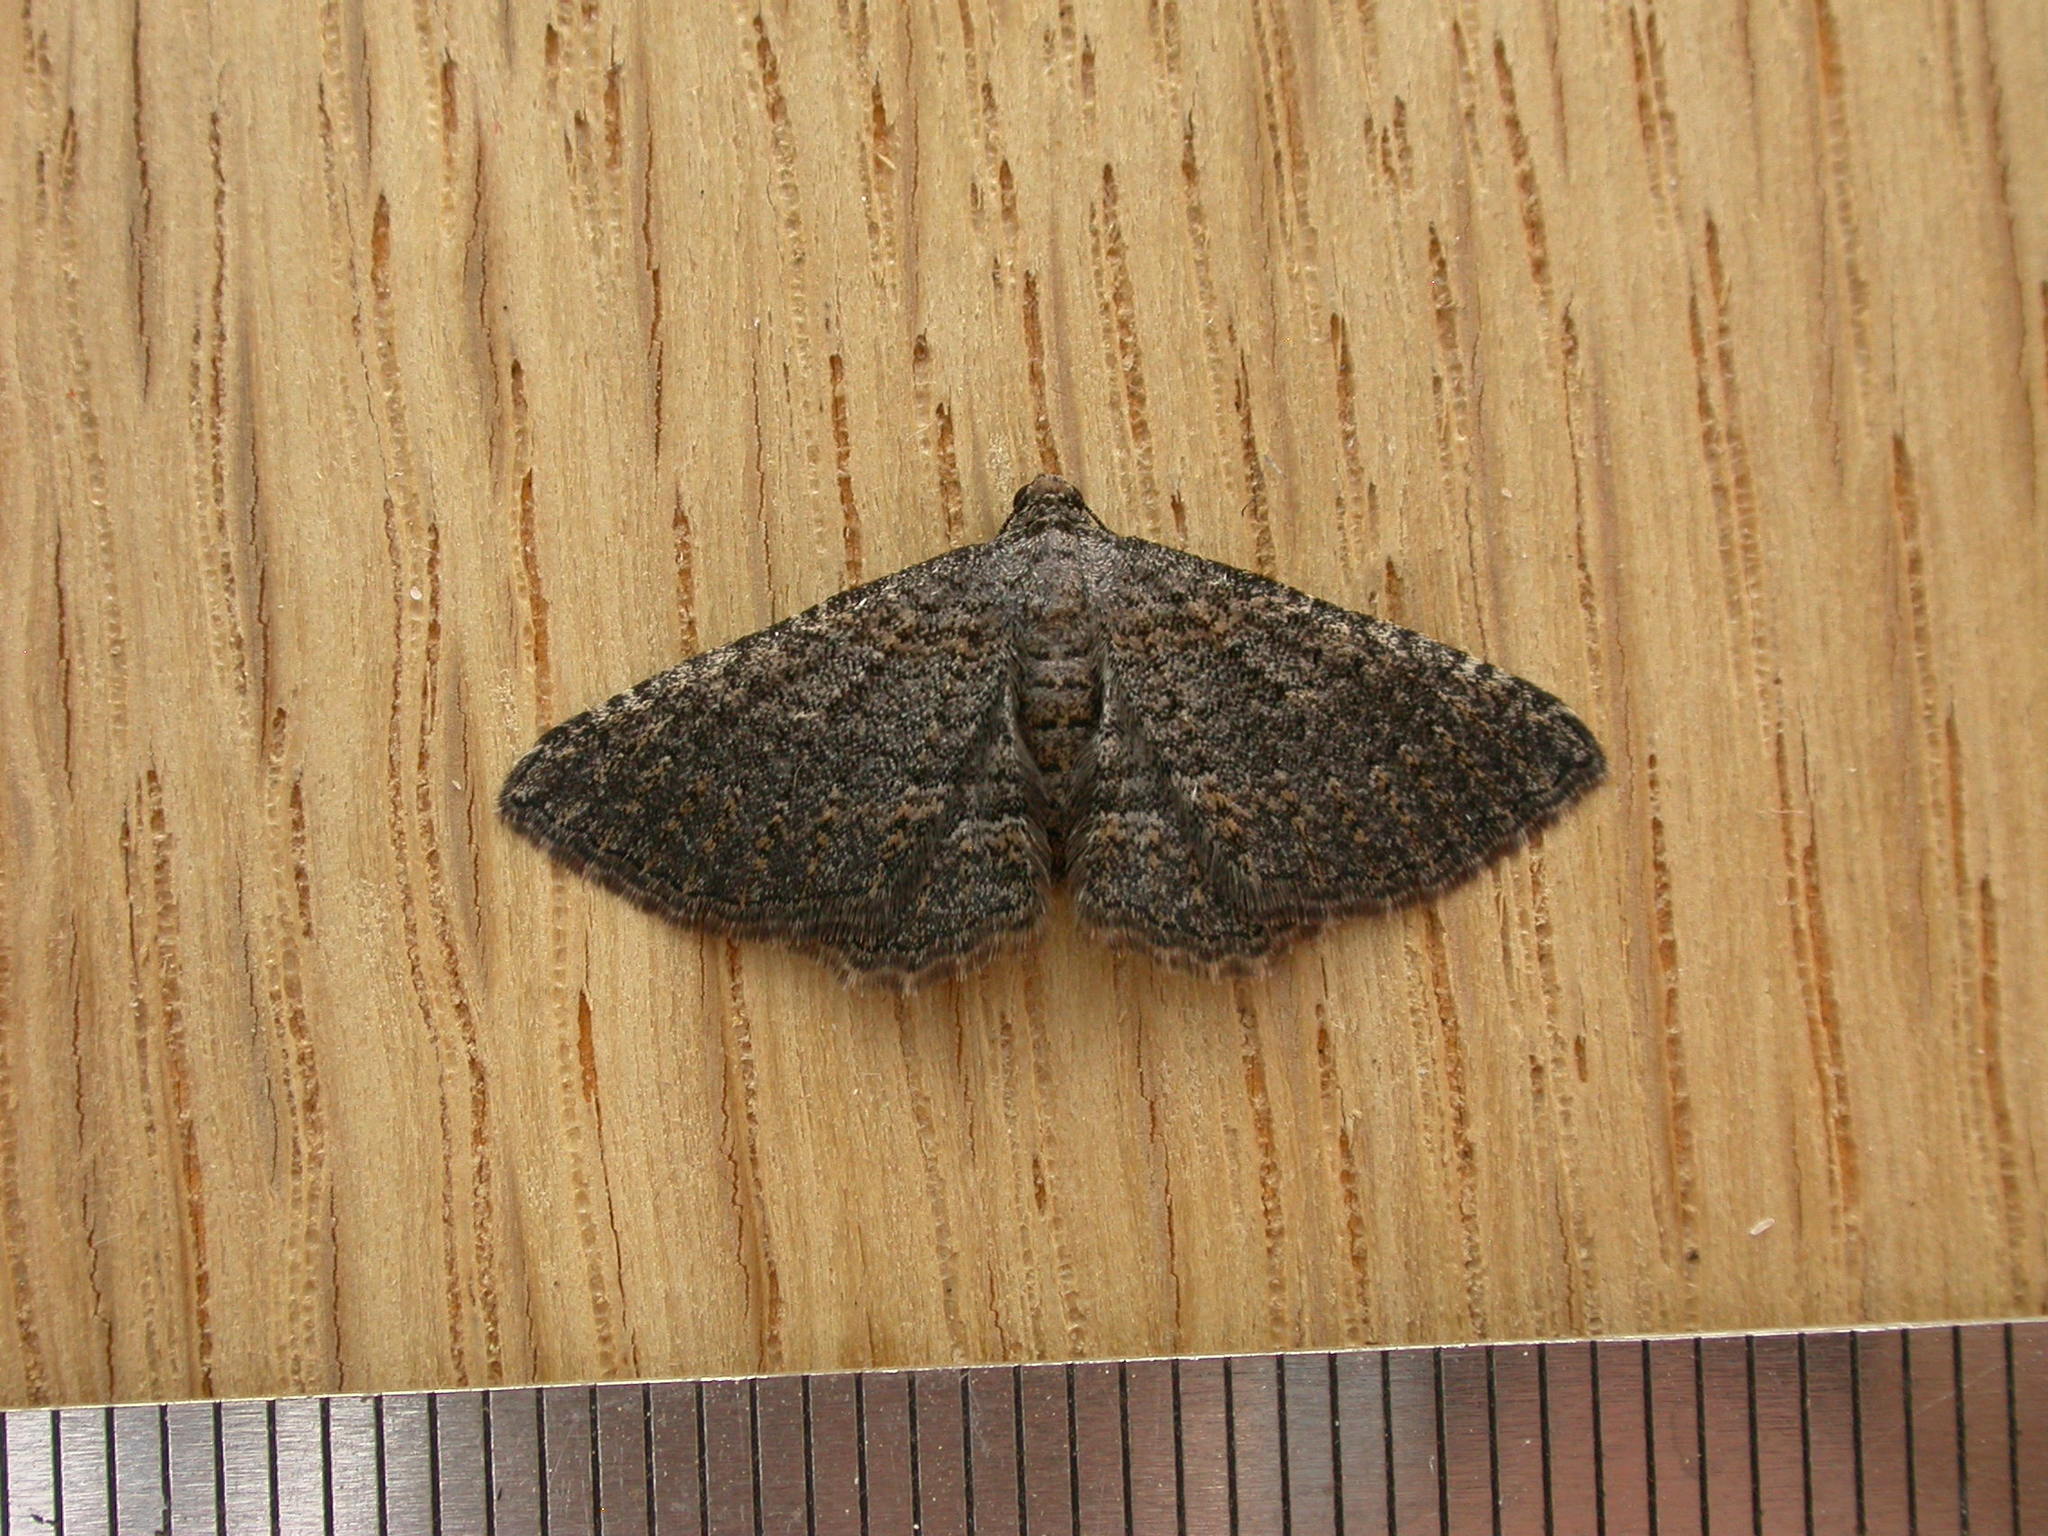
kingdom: Animalia
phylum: Arthropoda
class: Insecta
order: Lepidoptera
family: Geometridae
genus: Chrysolarentia
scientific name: Chrysolarentia squamulata
